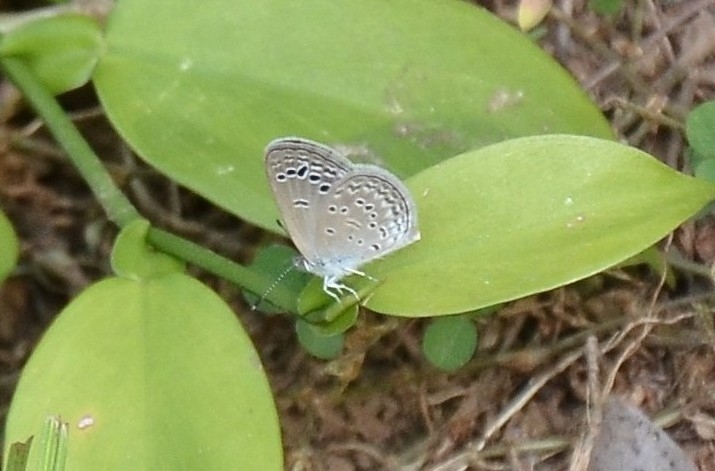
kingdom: Animalia
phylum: Arthropoda
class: Insecta
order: Lepidoptera
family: Lycaenidae
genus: Zizina
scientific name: Zizina otis
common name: Lesser grass blue
